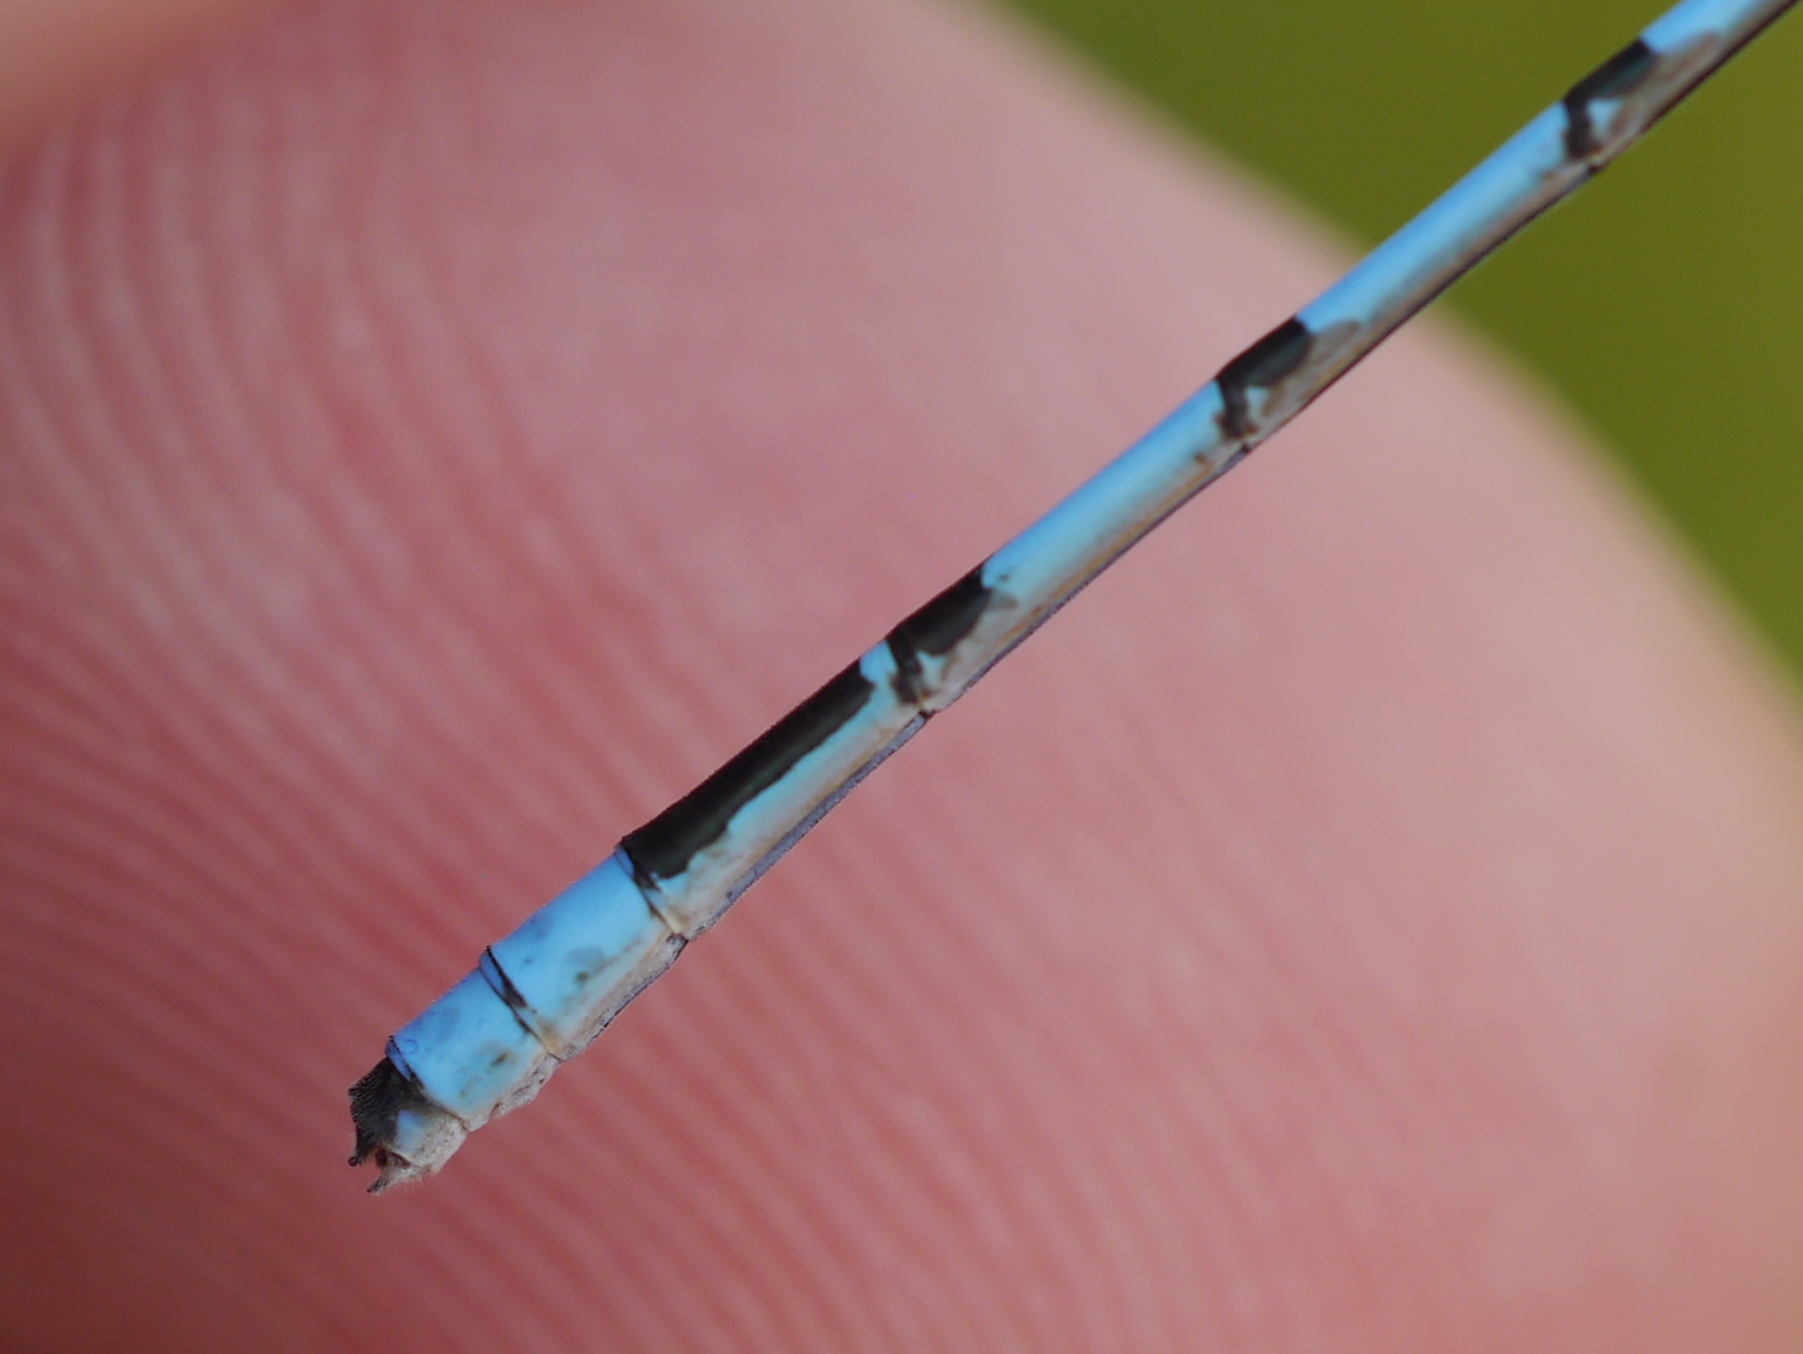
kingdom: Animalia
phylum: Arthropoda
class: Insecta
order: Odonata
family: Coenagrionidae
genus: Enallagma
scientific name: Enallagma hageni
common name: Hagen's bluet
